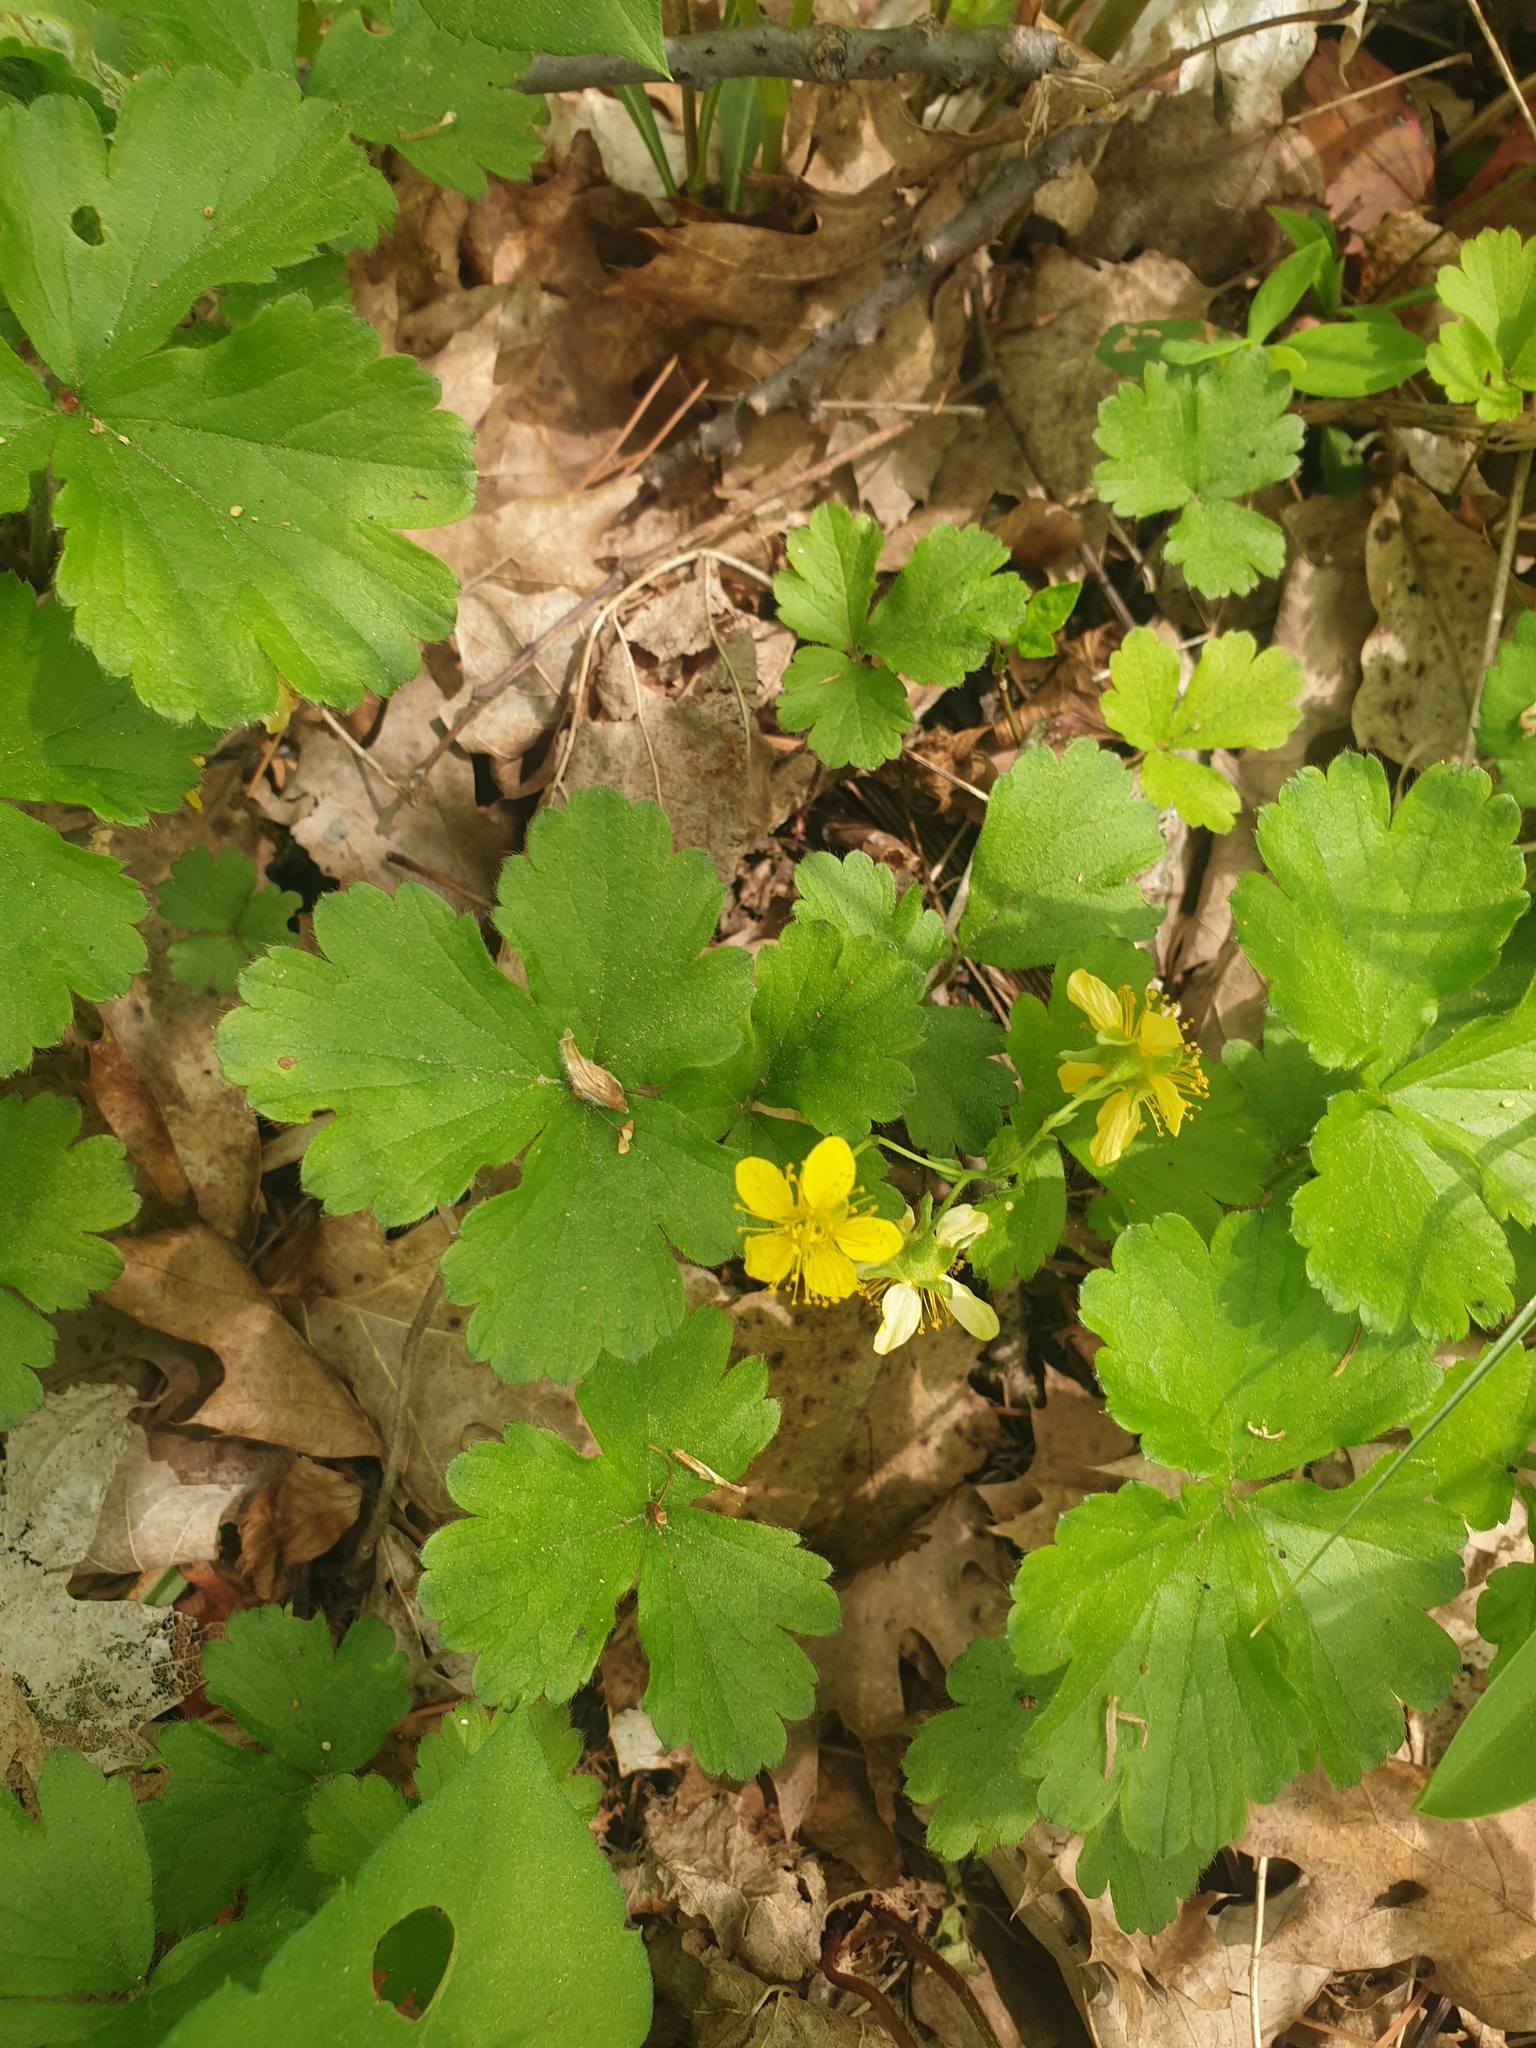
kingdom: Plantae
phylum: Tracheophyta
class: Magnoliopsida
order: Rosales
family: Rosaceae
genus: Geum
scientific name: Geum fragarioides
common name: Appalachian barren strawberry
